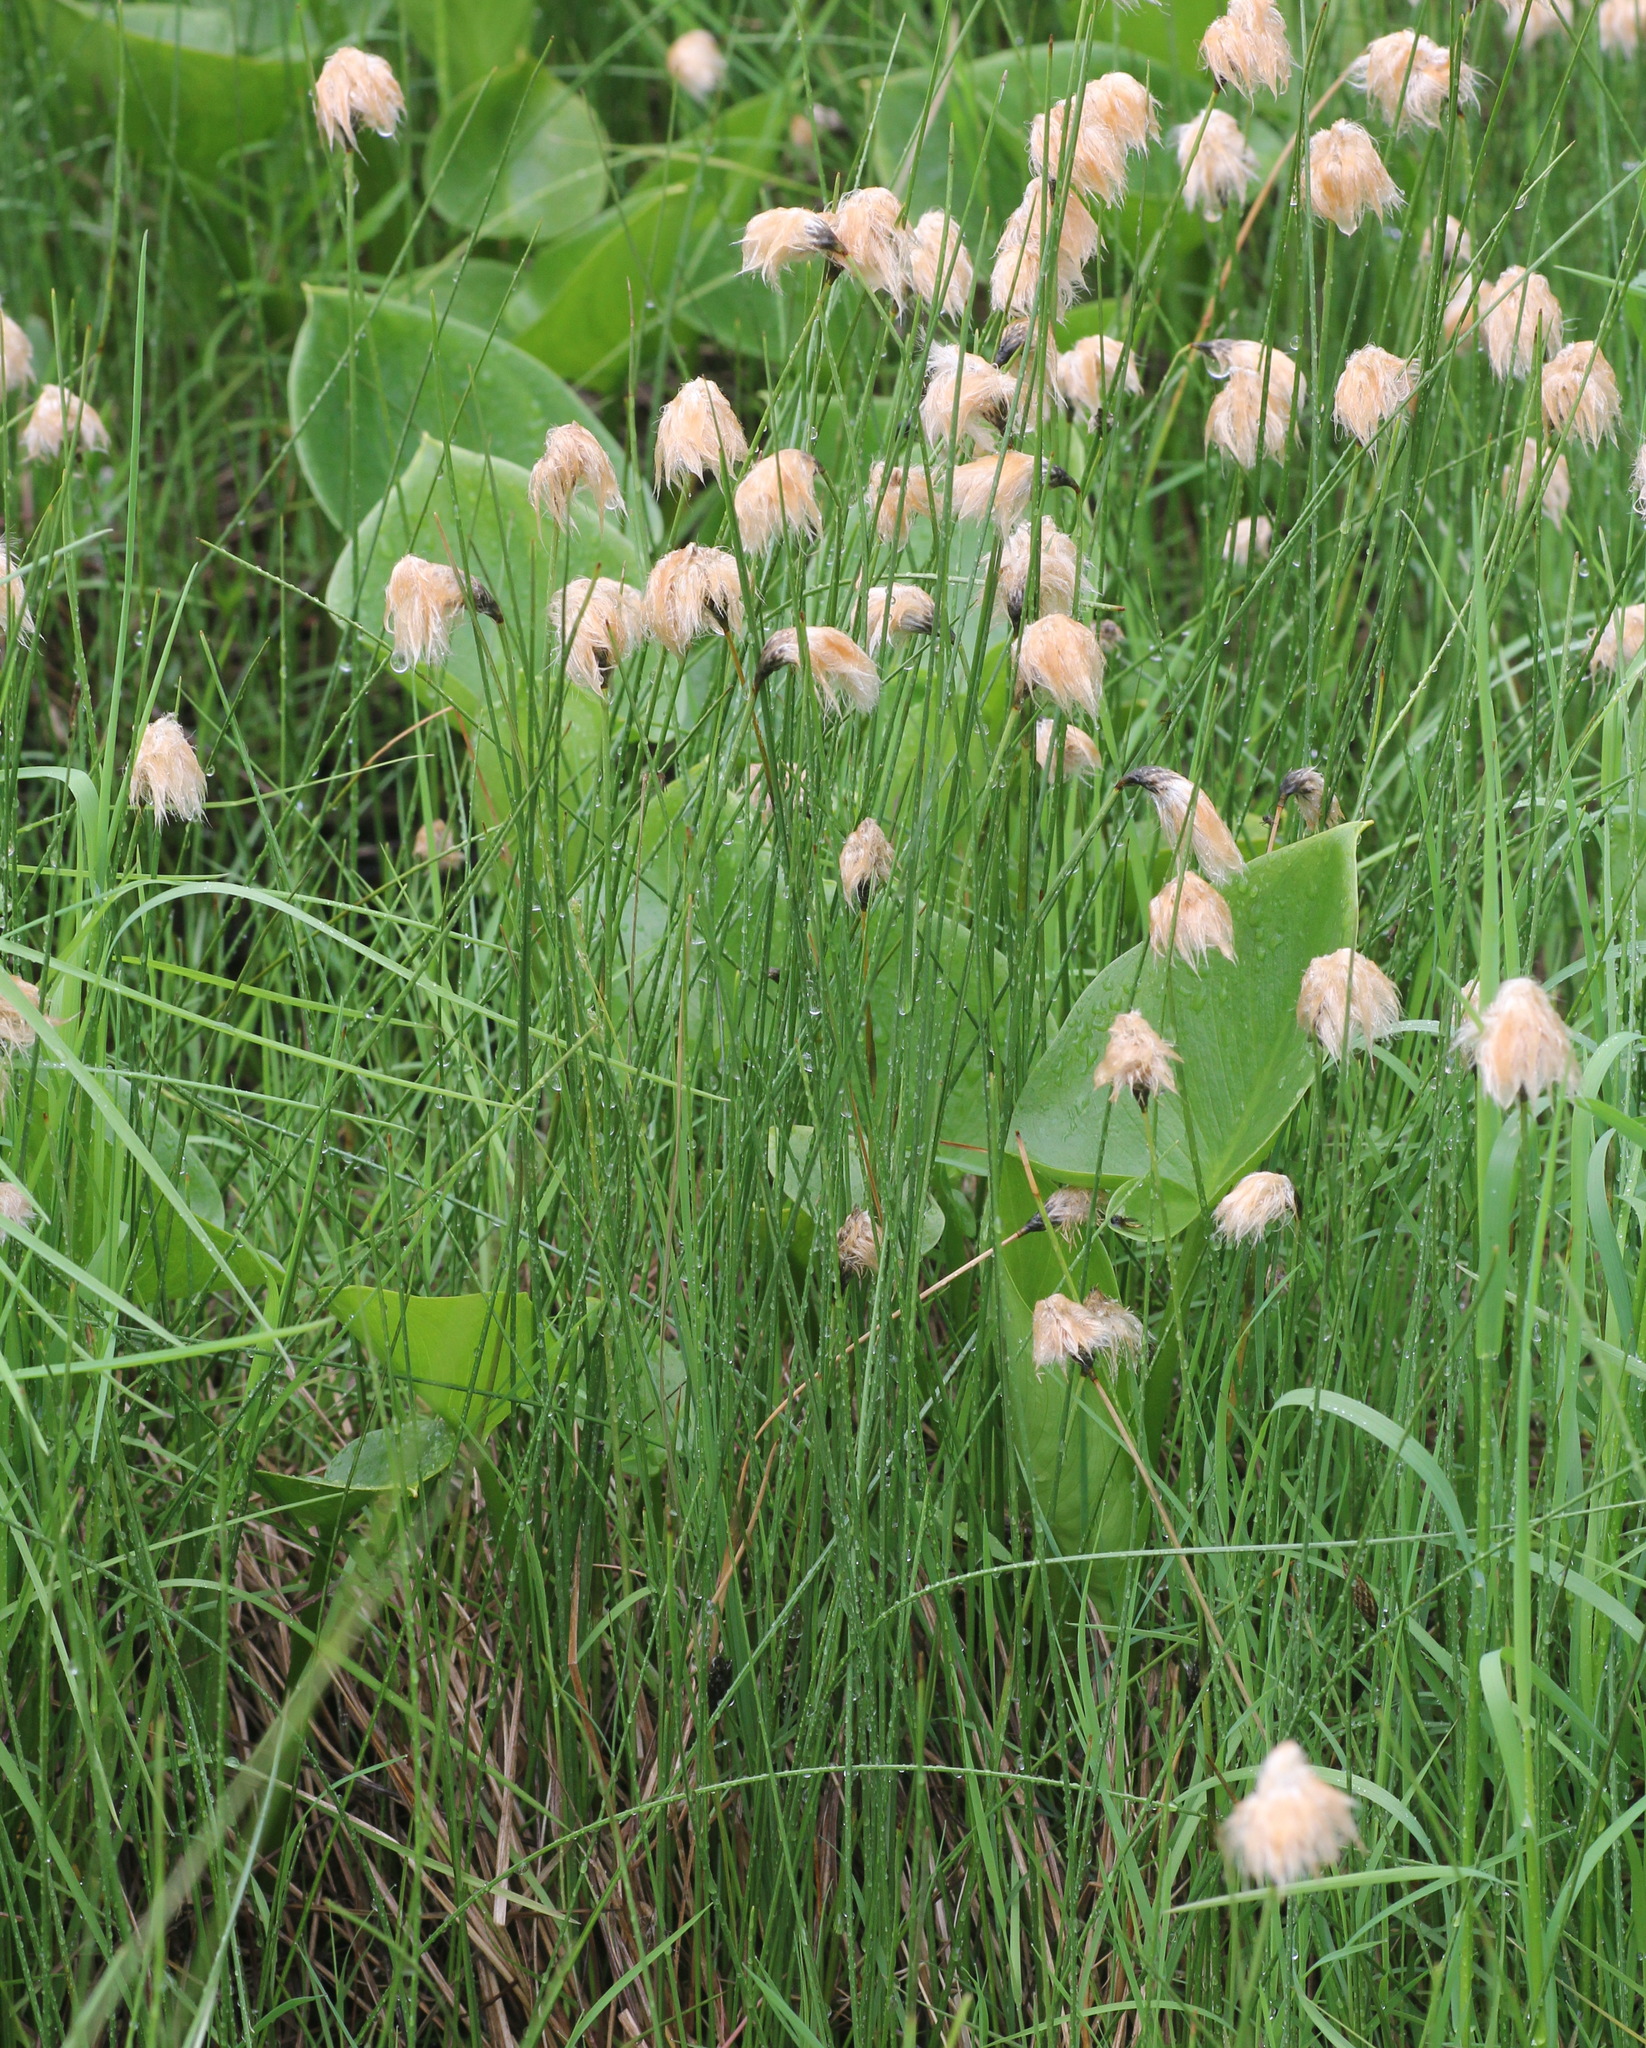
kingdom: Plantae
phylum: Tracheophyta
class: Liliopsida
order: Poales
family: Cyperaceae
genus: Eriophorum
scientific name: Eriophorum chamissonis
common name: Chamisso's cottongrass
